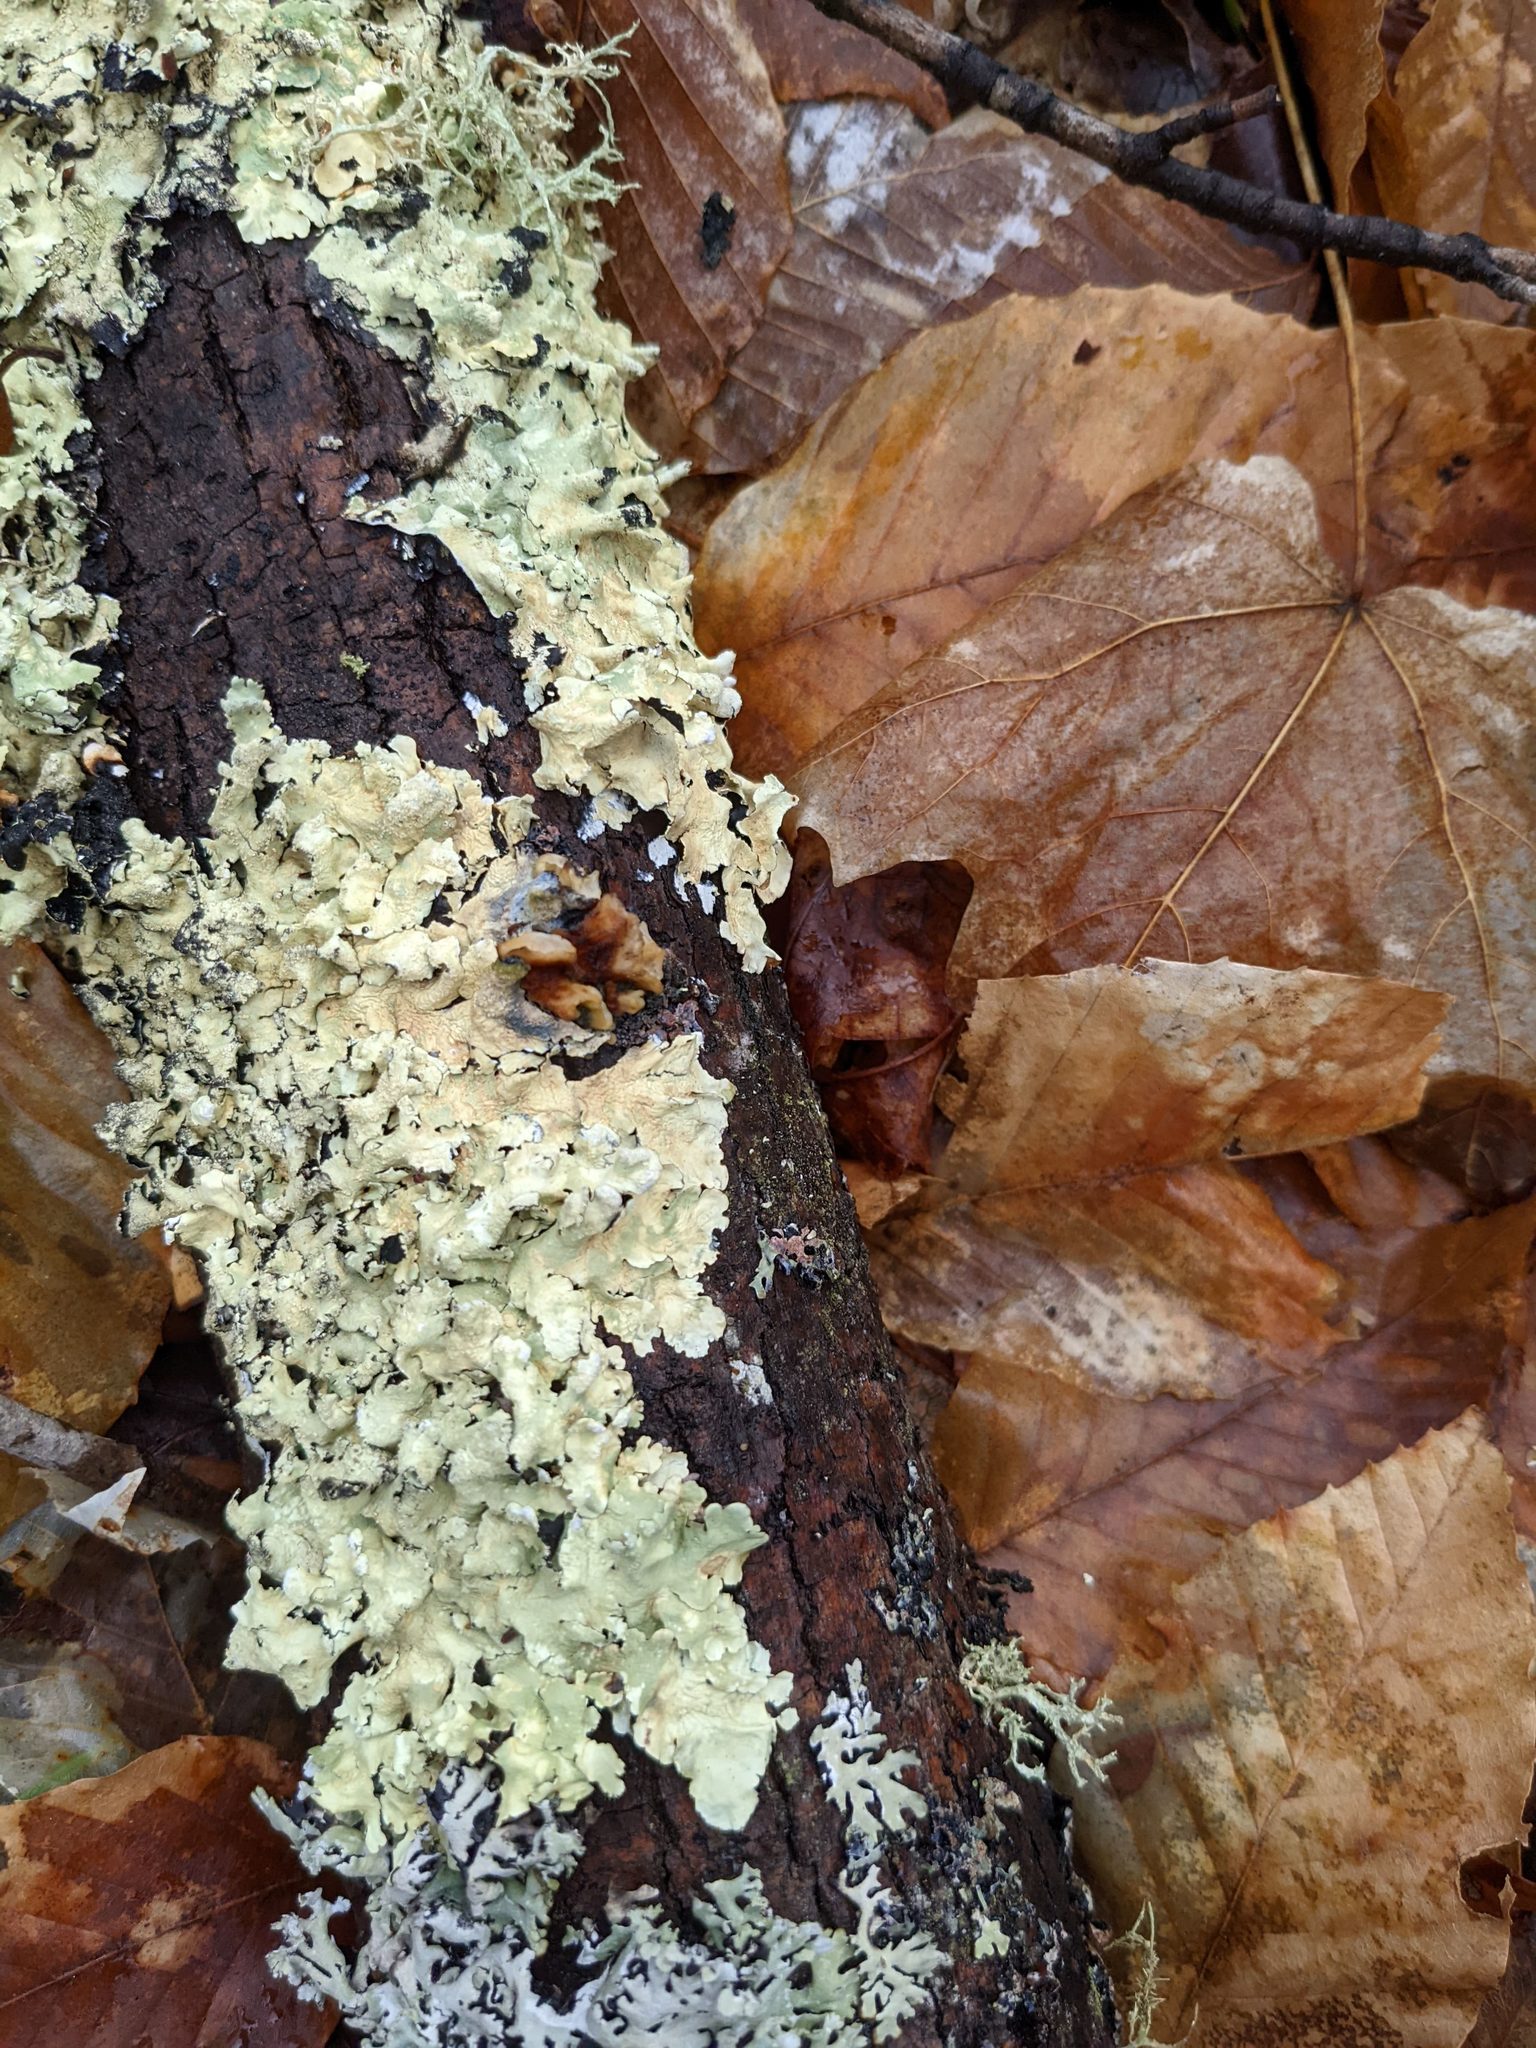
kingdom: Fungi
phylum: Ascomycota
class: Lecanoromycetes
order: Lecanorales
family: Parmeliaceae
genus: Flavoparmelia
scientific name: Flavoparmelia caperata
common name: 40-mile per hour lichen
